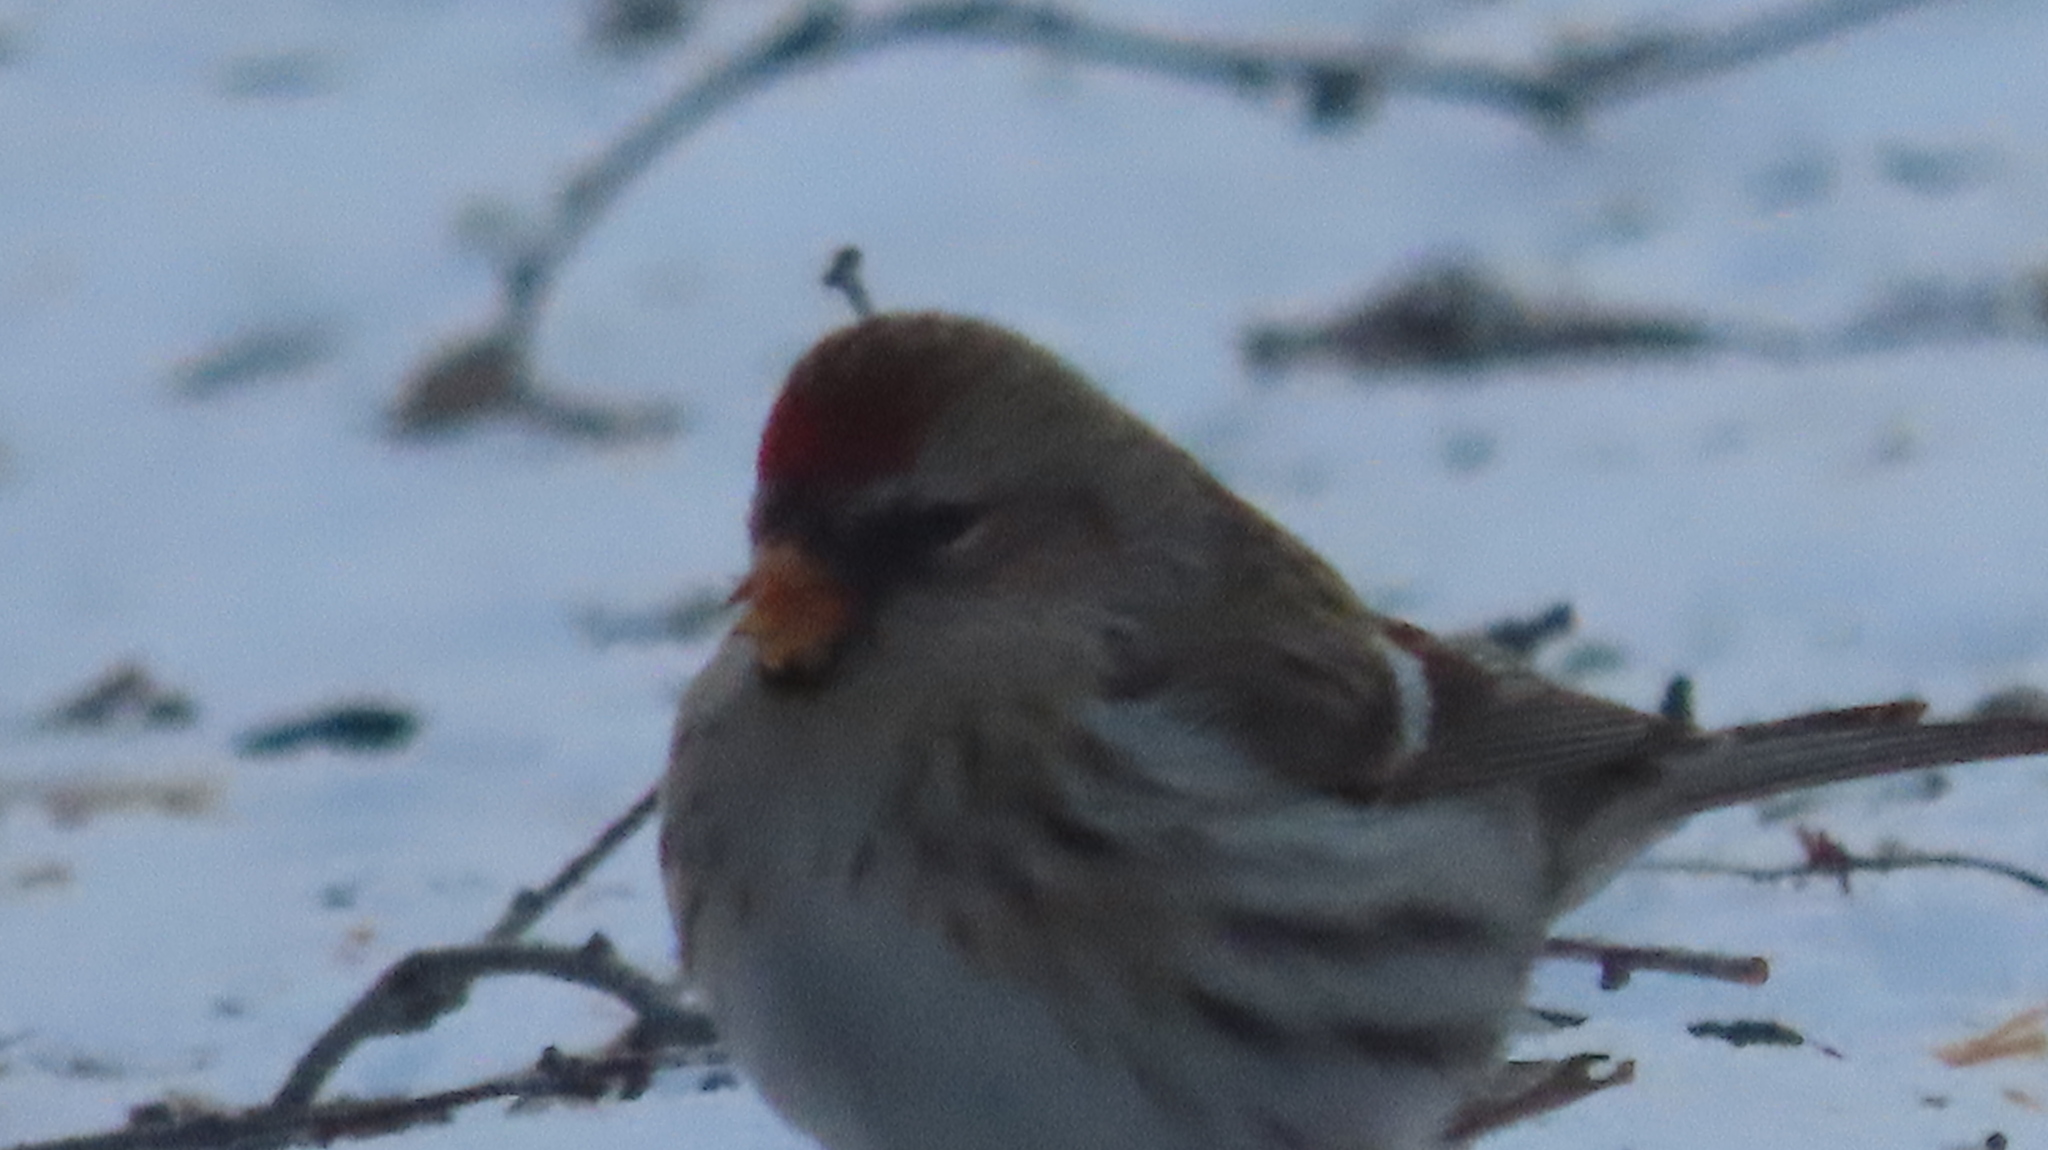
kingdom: Animalia
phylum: Chordata
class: Aves
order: Passeriformes
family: Fringillidae
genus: Acanthis
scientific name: Acanthis flammea
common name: Common redpoll
